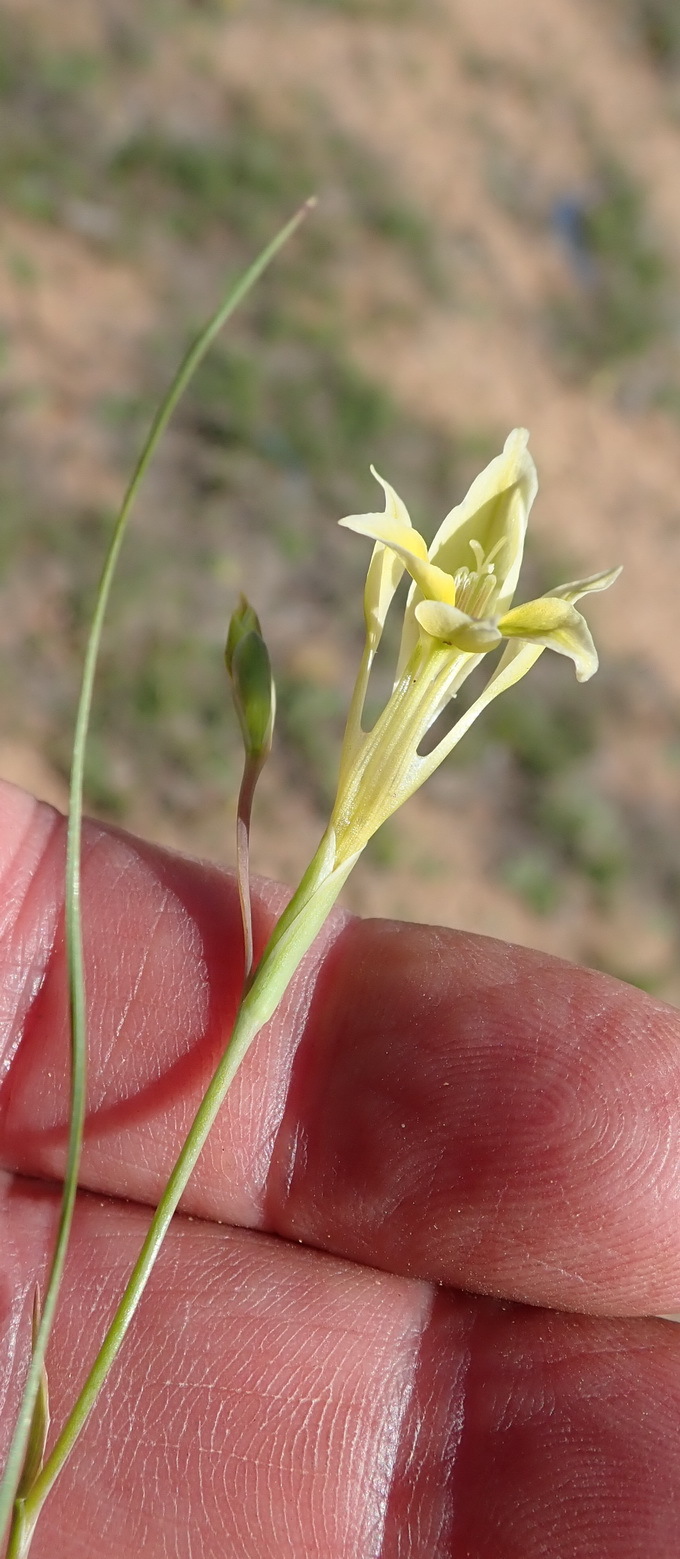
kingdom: Plantae
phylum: Tracheophyta
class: Liliopsida
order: Asparagales
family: Iridaceae
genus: Gladiolus
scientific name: Gladiolus permeabilis
